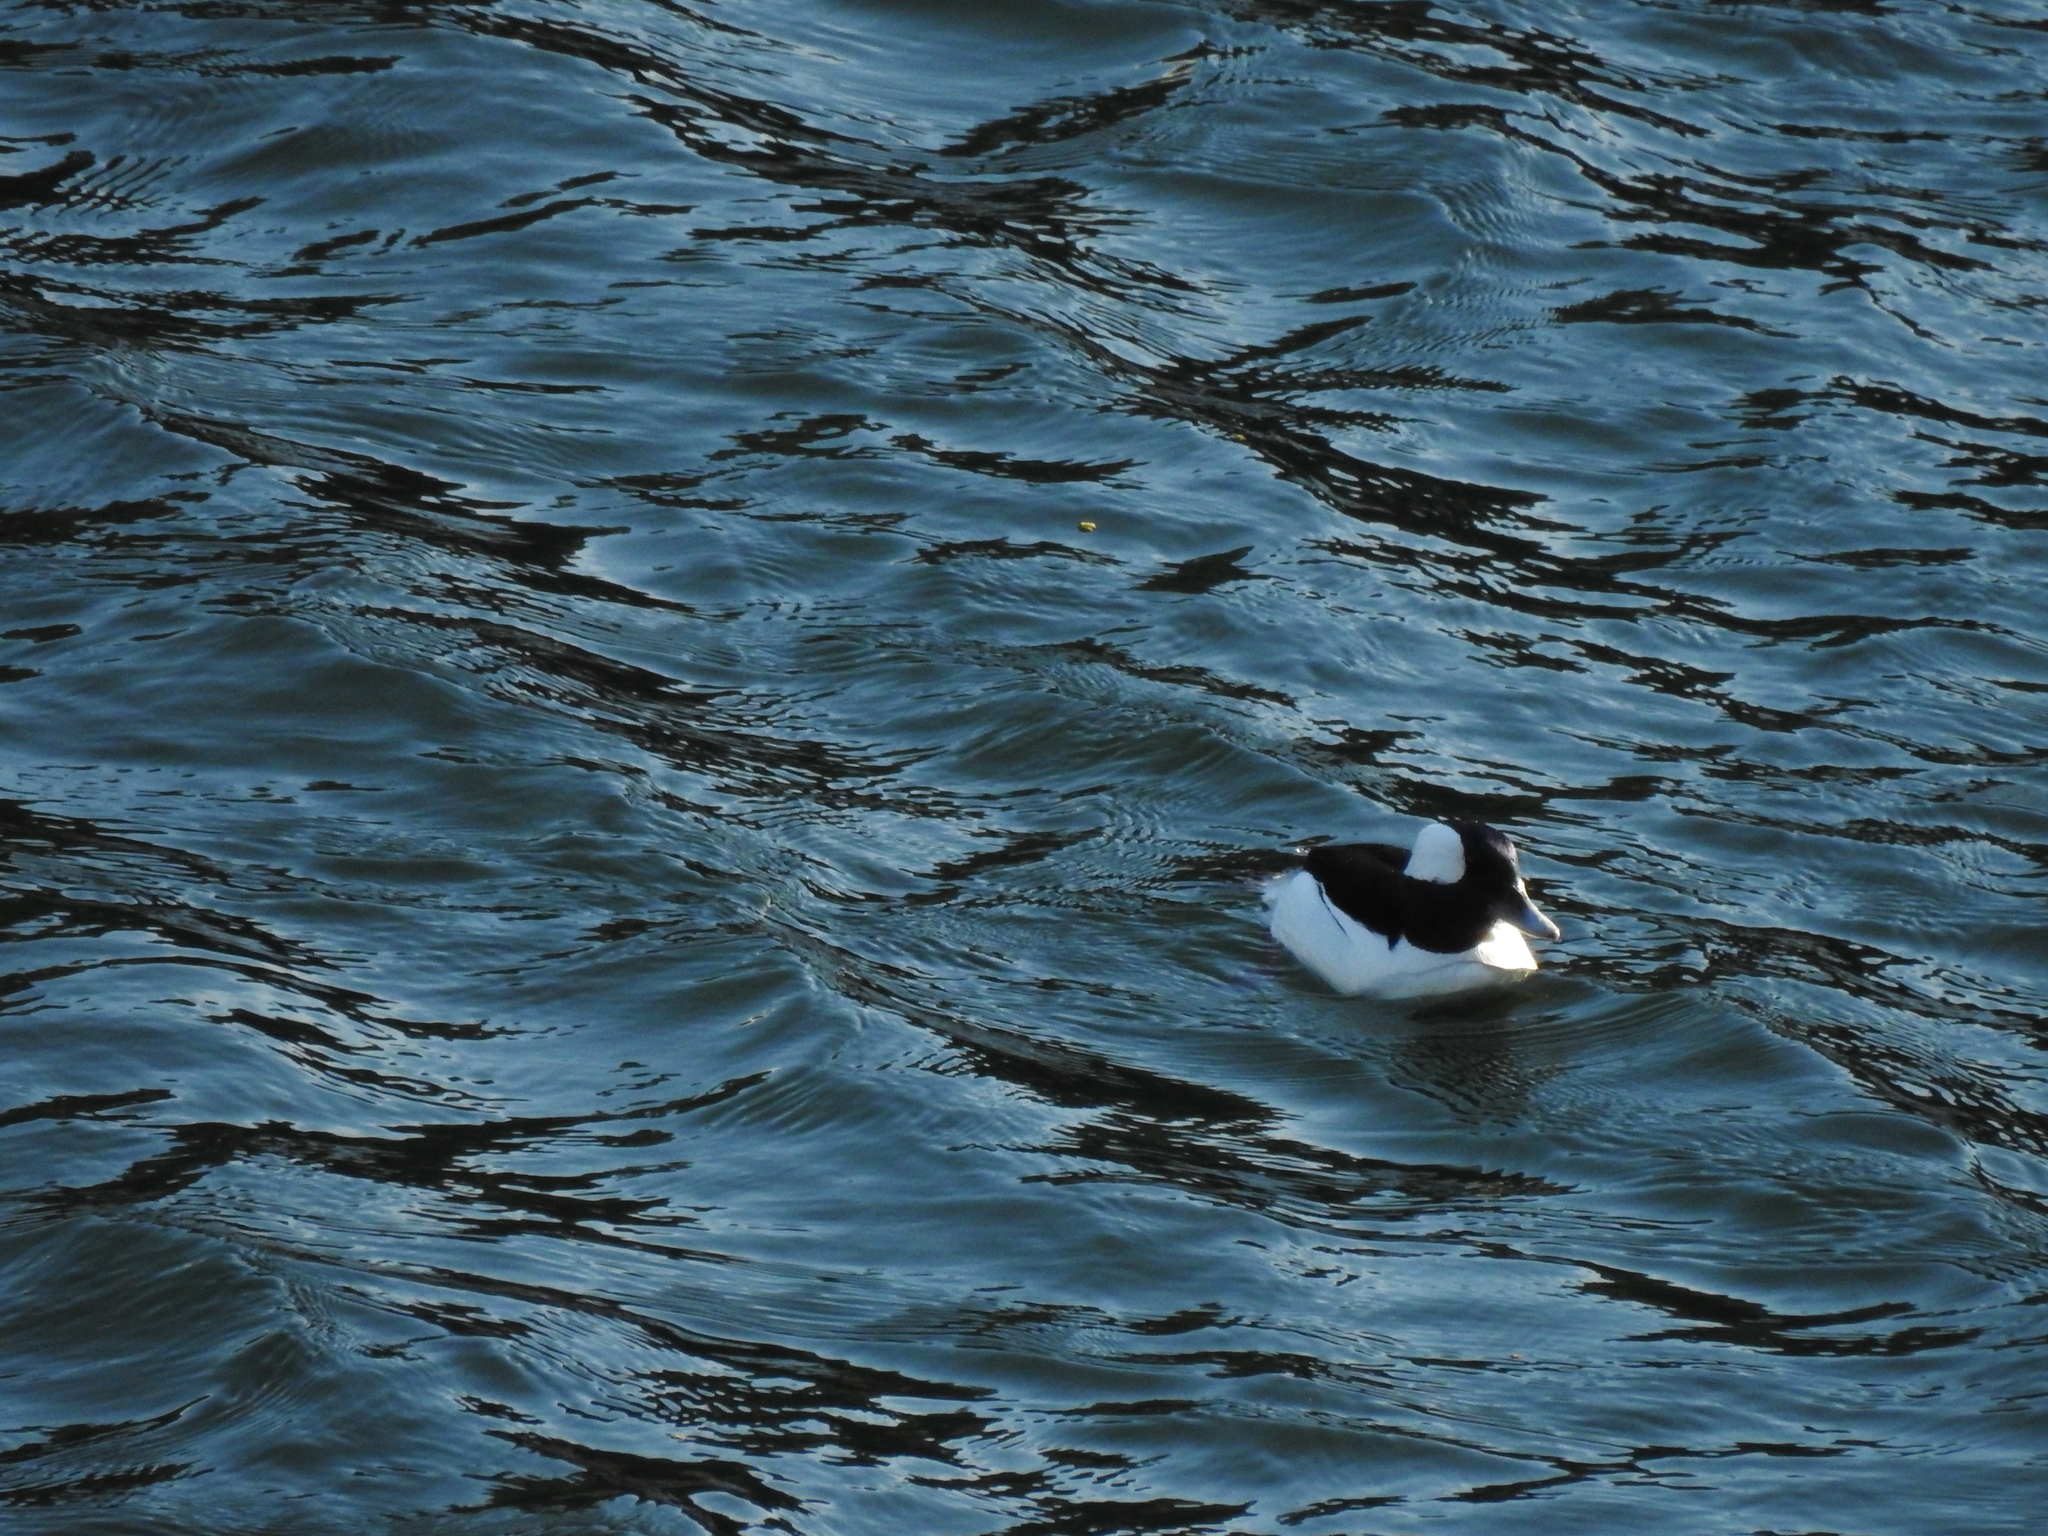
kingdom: Animalia
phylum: Chordata
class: Aves
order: Anseriformes
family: Anatidae
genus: Bucephala
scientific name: Bucephala albeola
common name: Bufflehead
